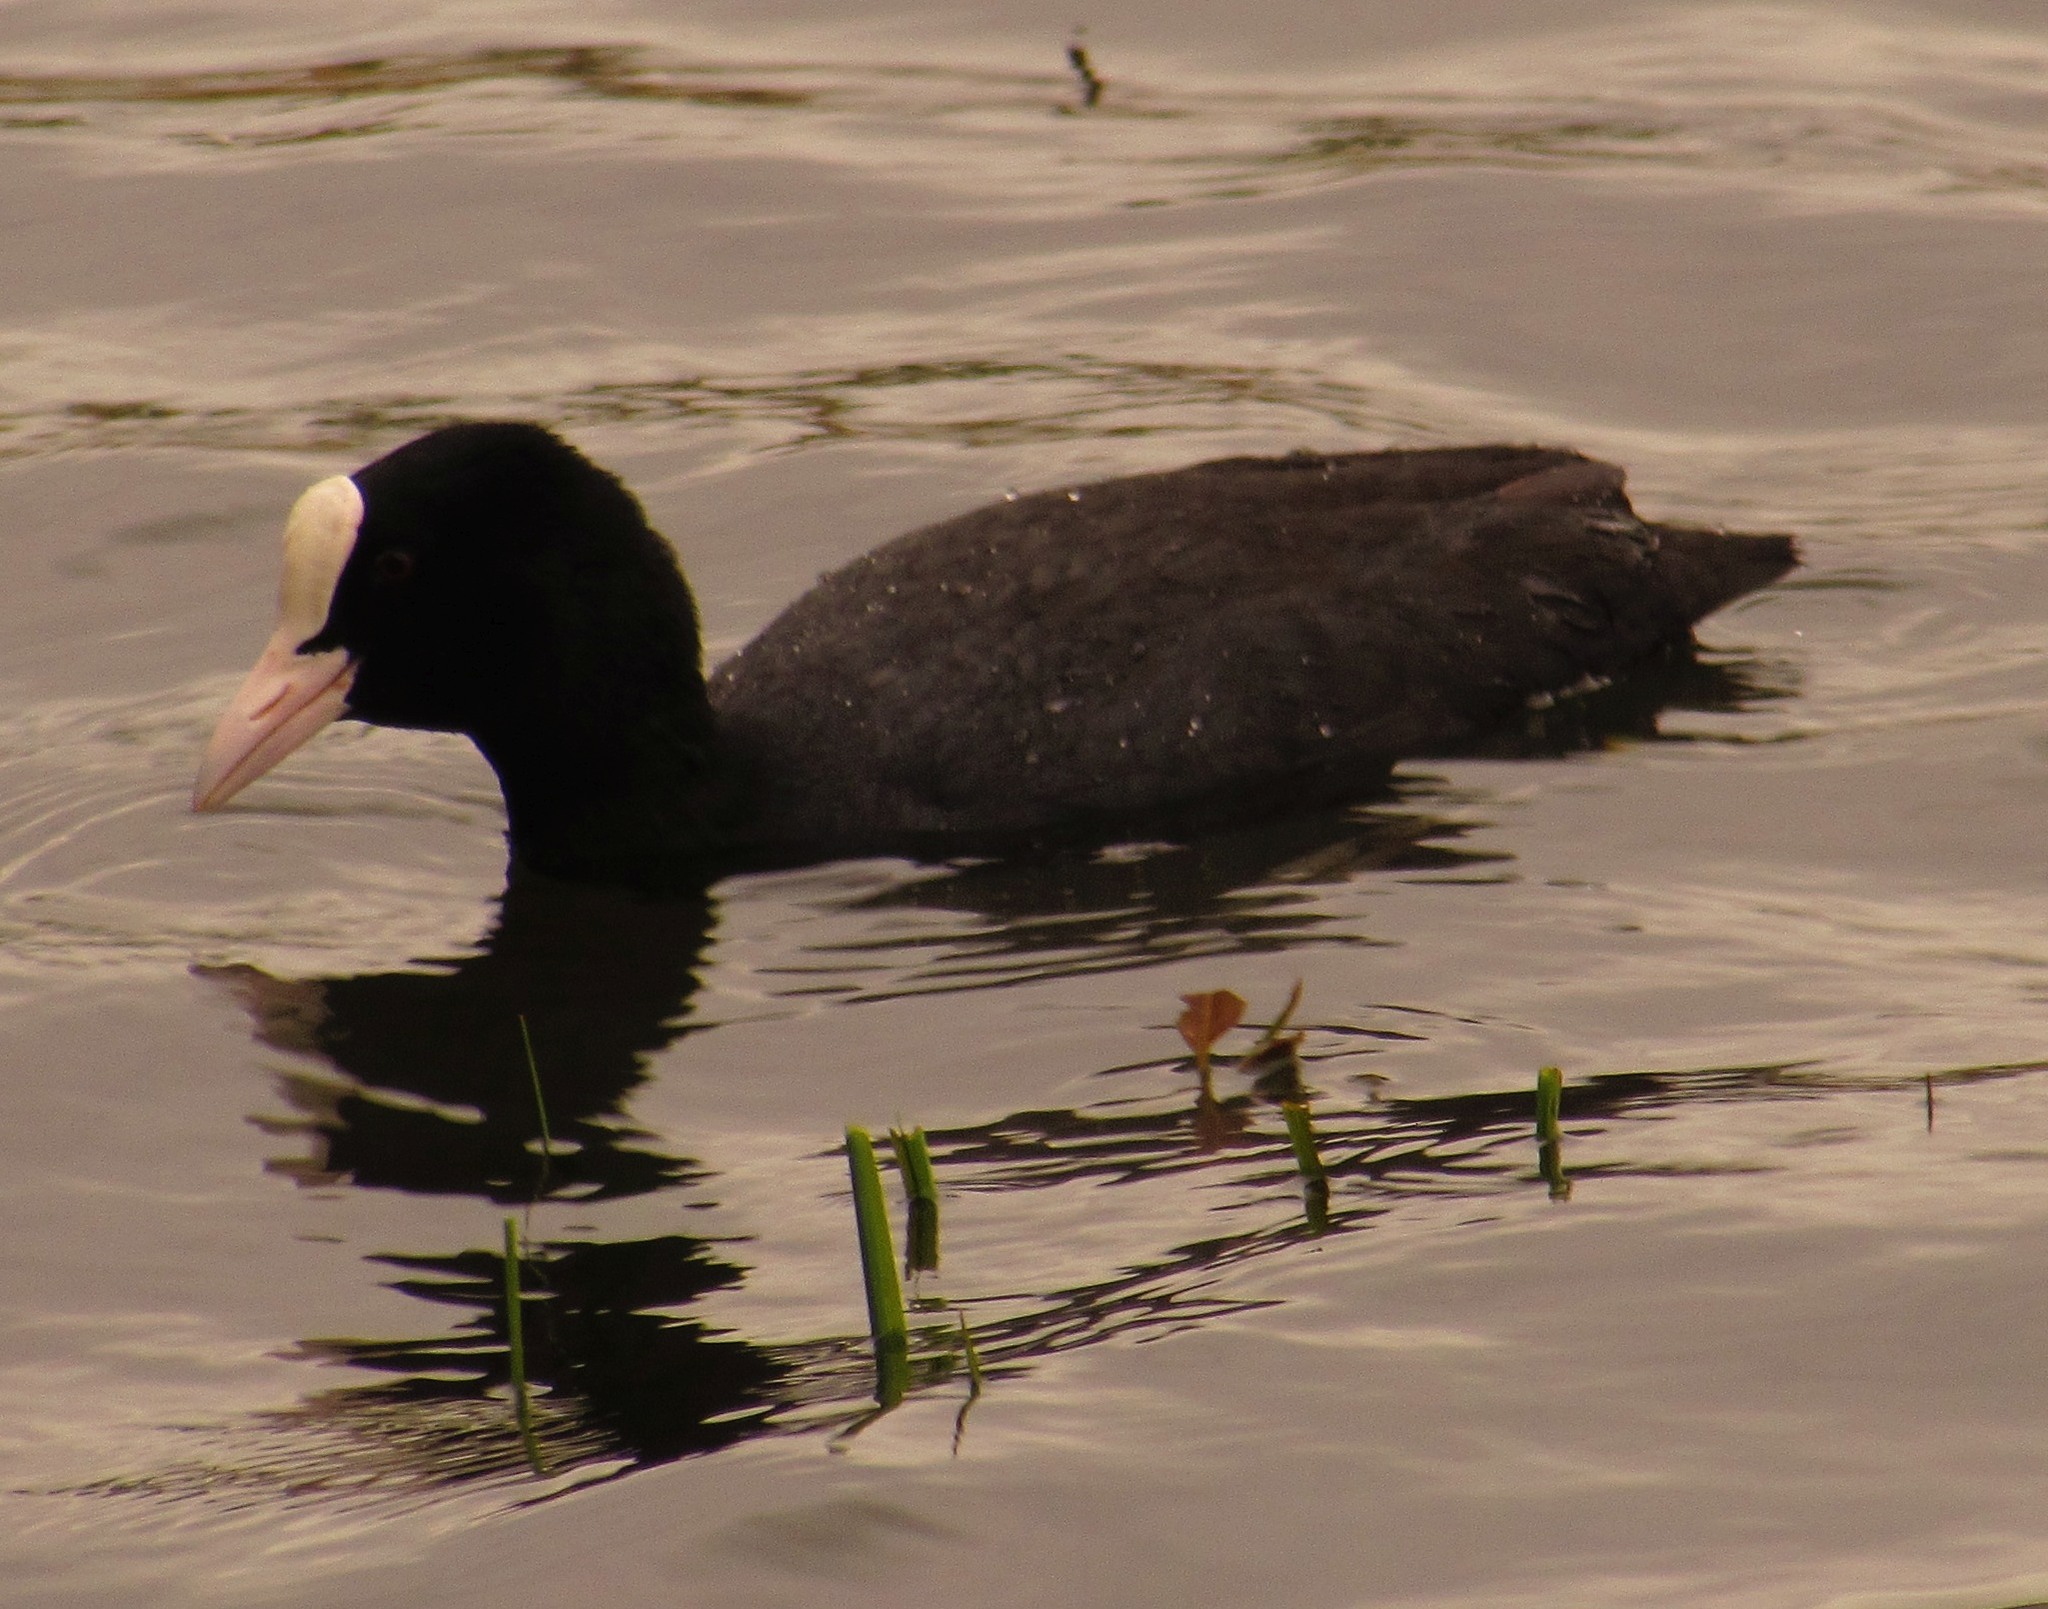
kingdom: Animalia
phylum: Chordata
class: Aves
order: Gruiformes
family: Rallidae
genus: Fulica
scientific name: Fulica atra
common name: Eurasian coot
